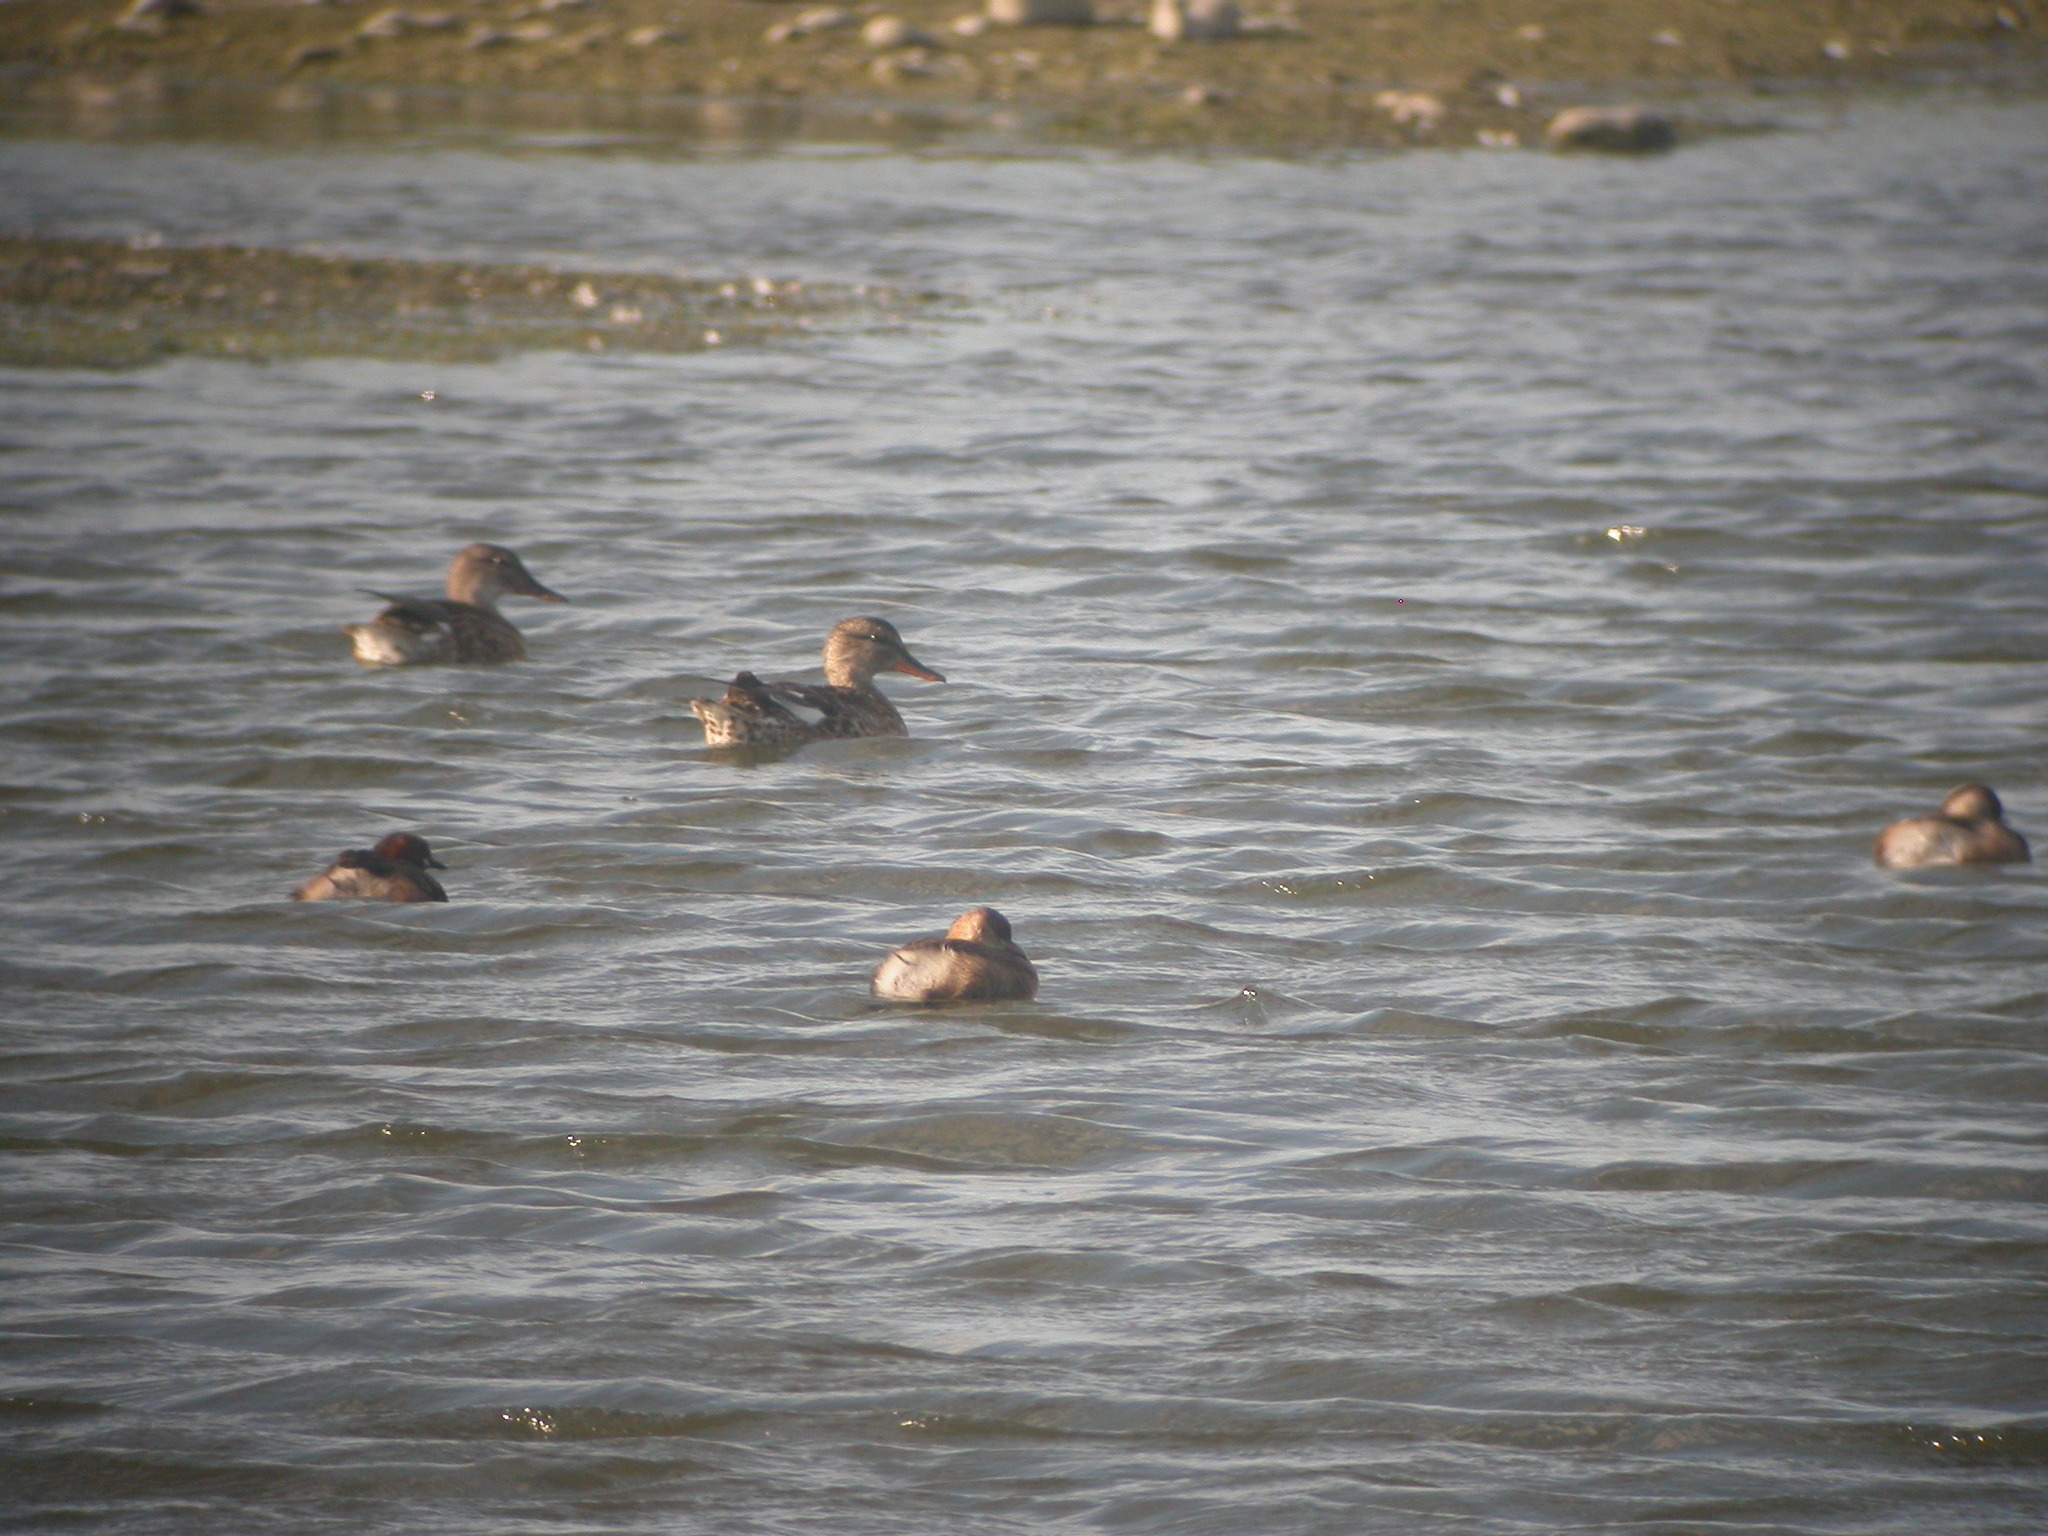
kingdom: Animalia
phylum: Chordata
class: Aves
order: Anseriformes
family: Anatidae
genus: Mareca
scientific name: Mareca strepera
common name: Gadwall
